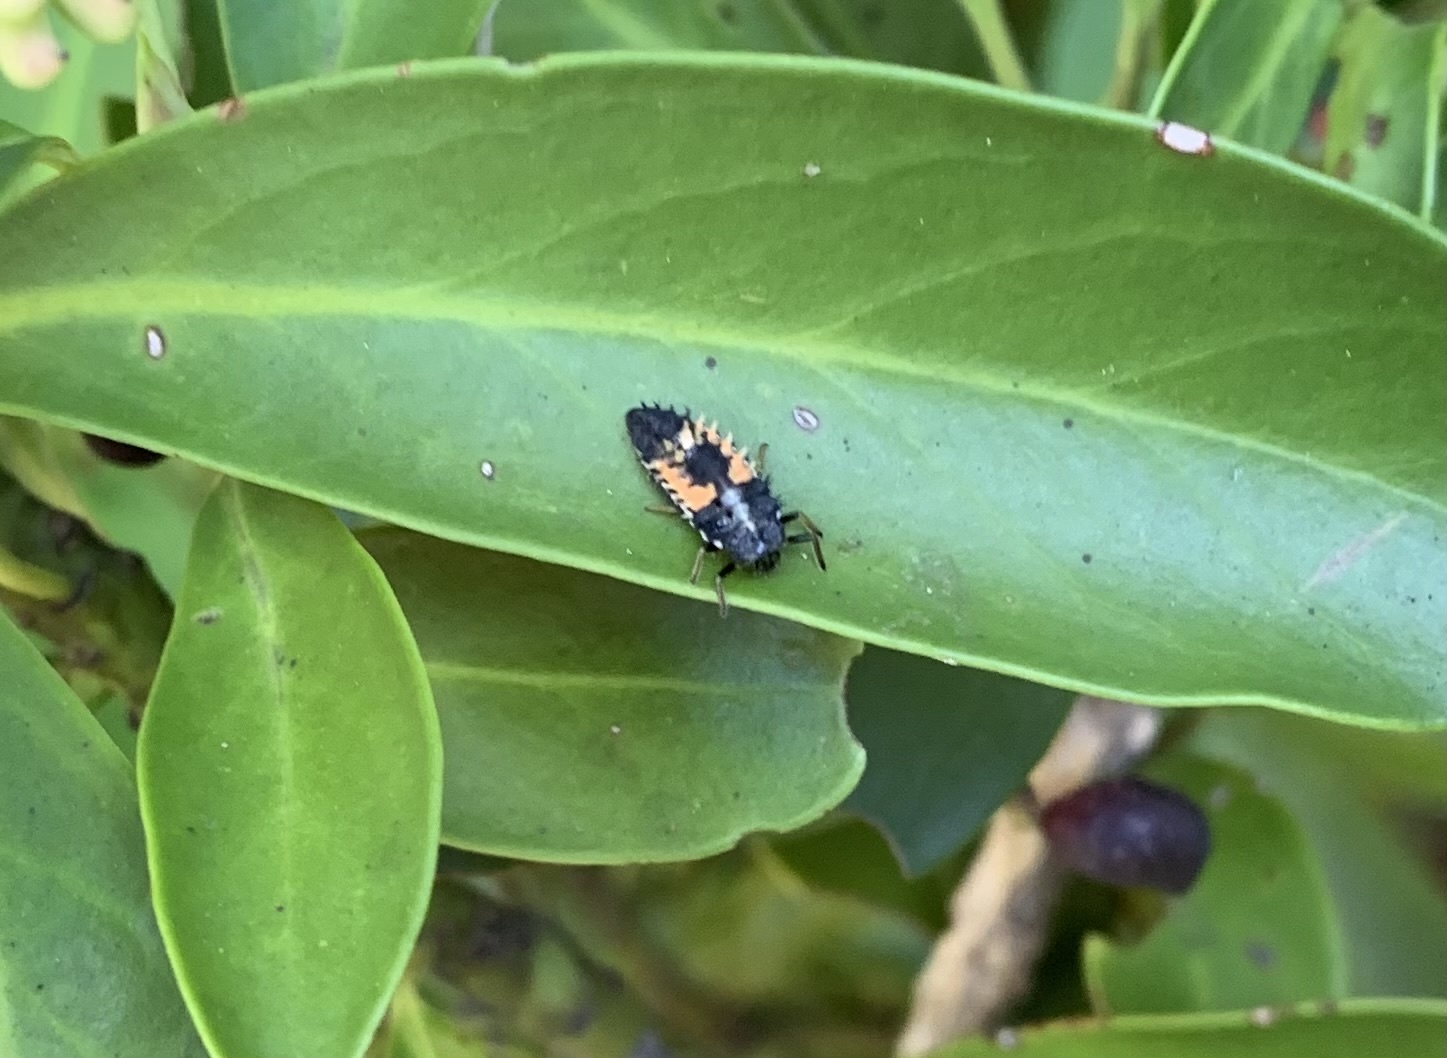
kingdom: Animalia
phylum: Arthropoda
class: Insecta
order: Coleoptera
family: Coccinellidae
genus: Harmonia
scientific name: Harmonia axyridis
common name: Harlequin ladybird
